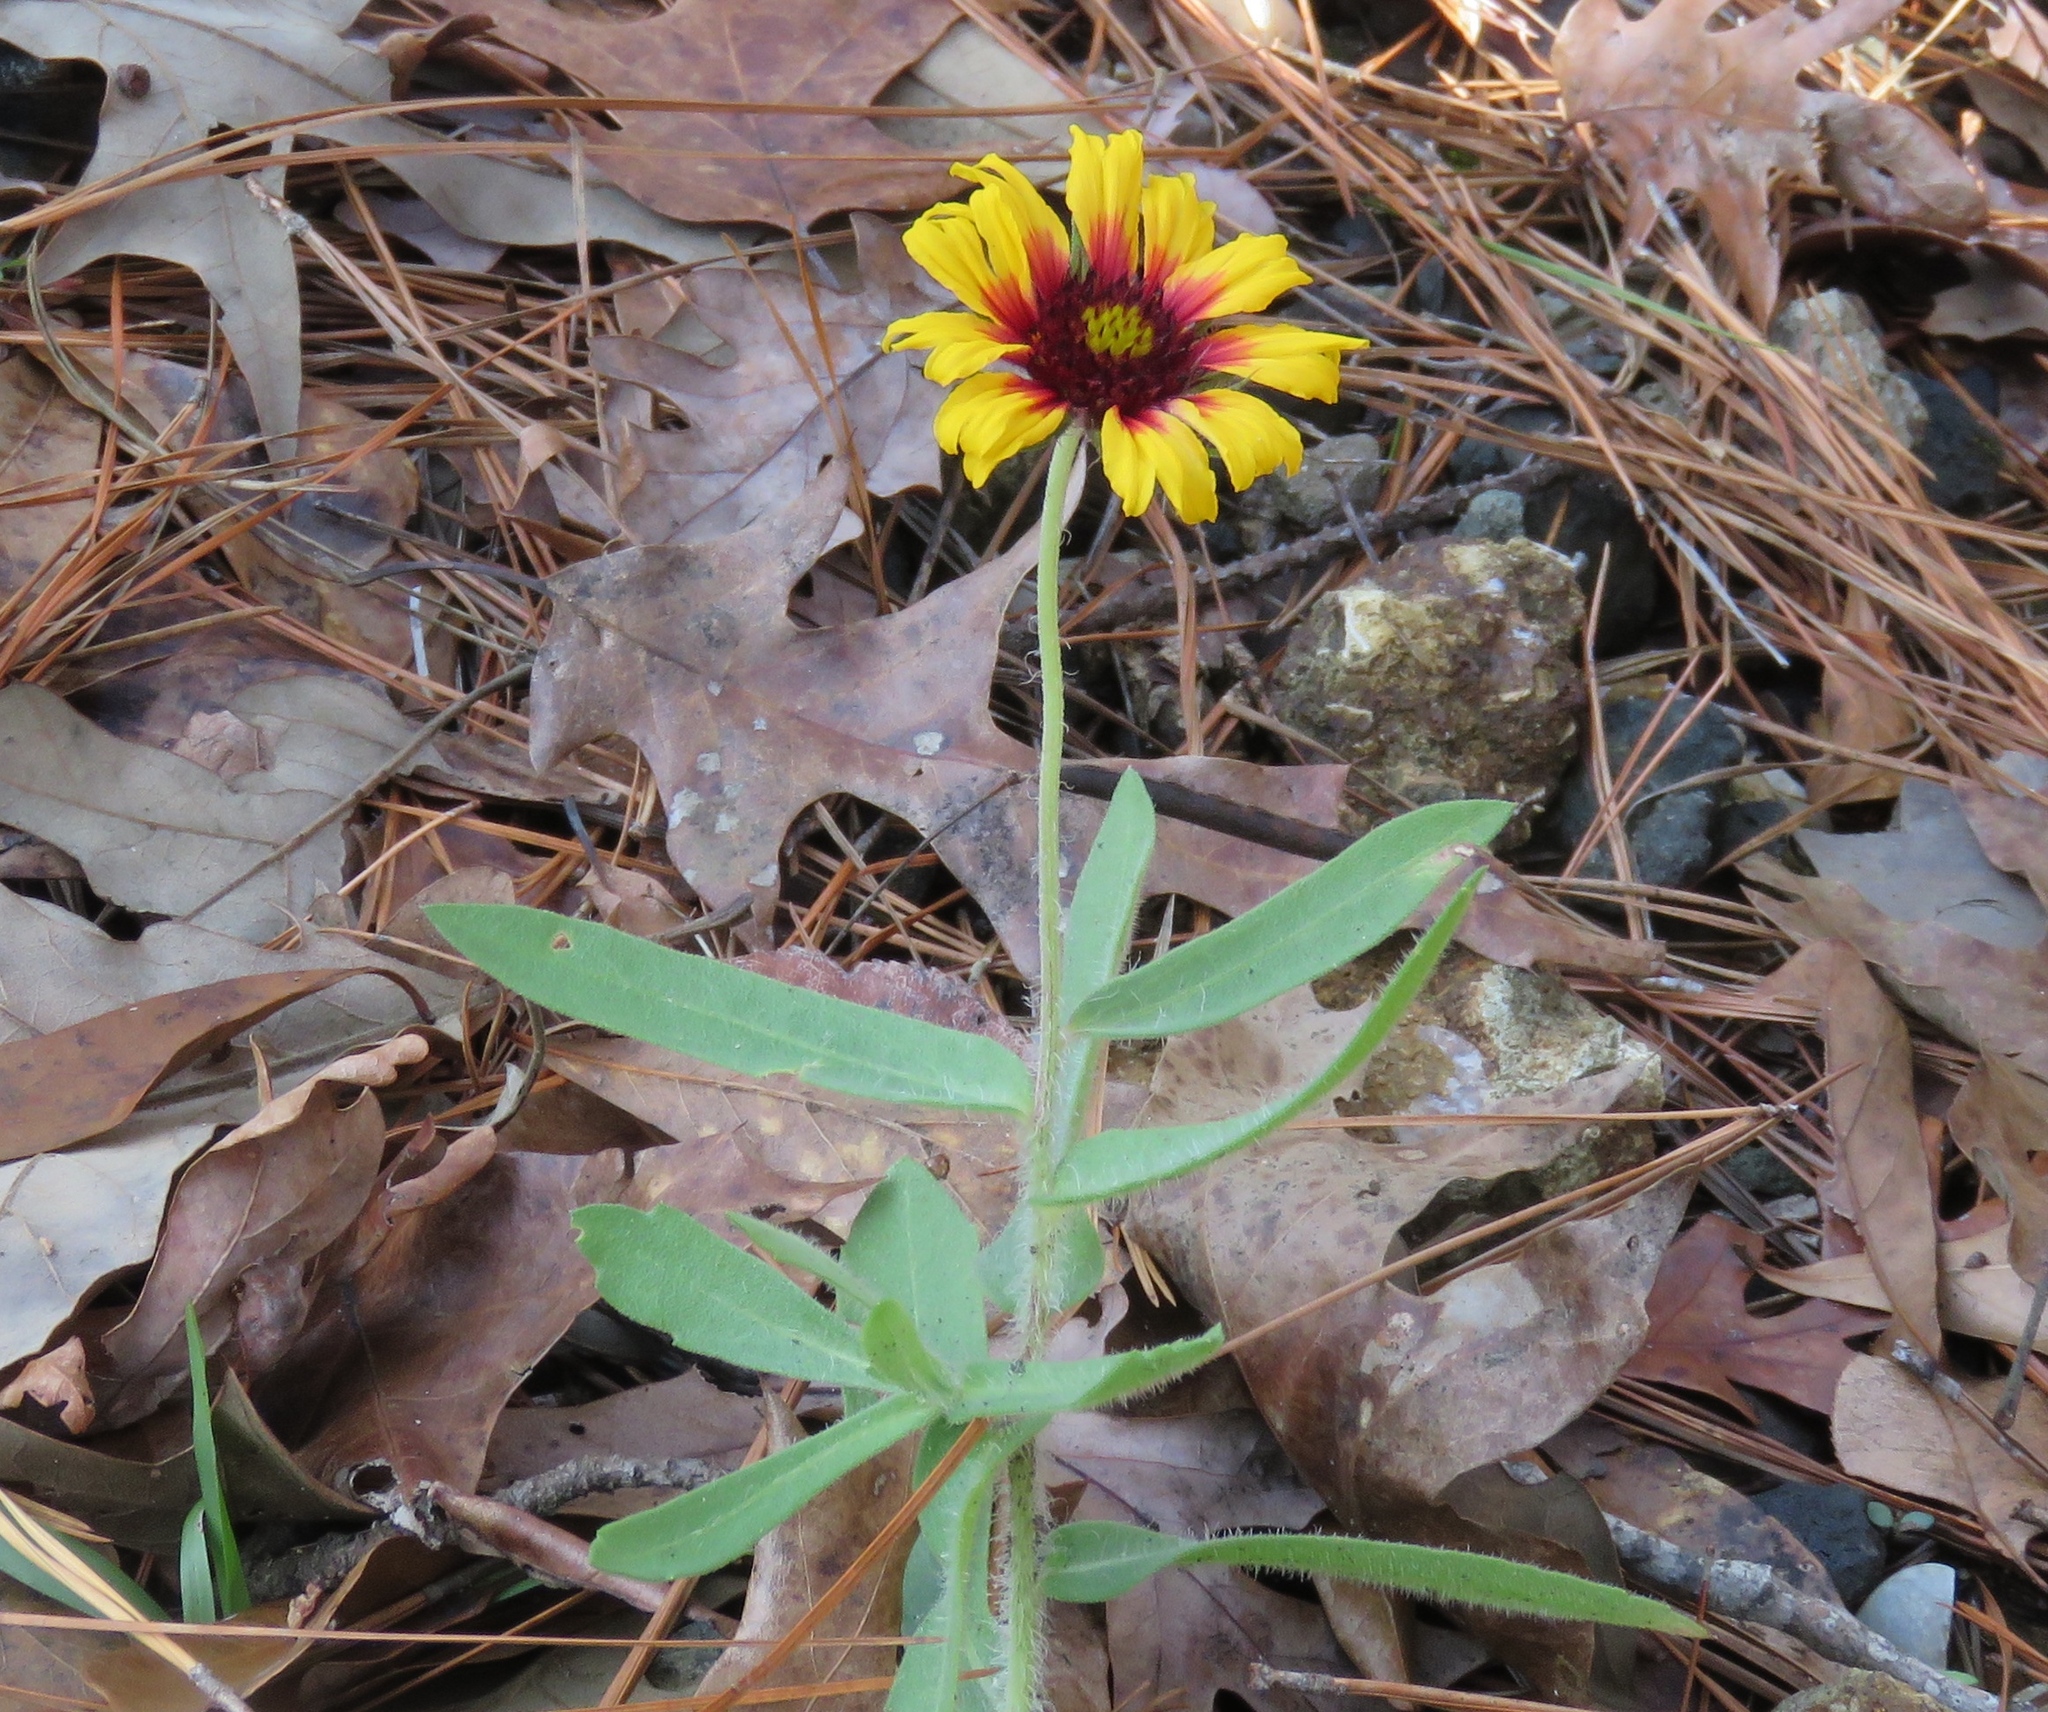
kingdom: Plantae
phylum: Tracheophyta
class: Magnoliopsida
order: Asterales
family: Asteraceae
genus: Gaillardia
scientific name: Gaillardia pulchella
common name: Firewheel
